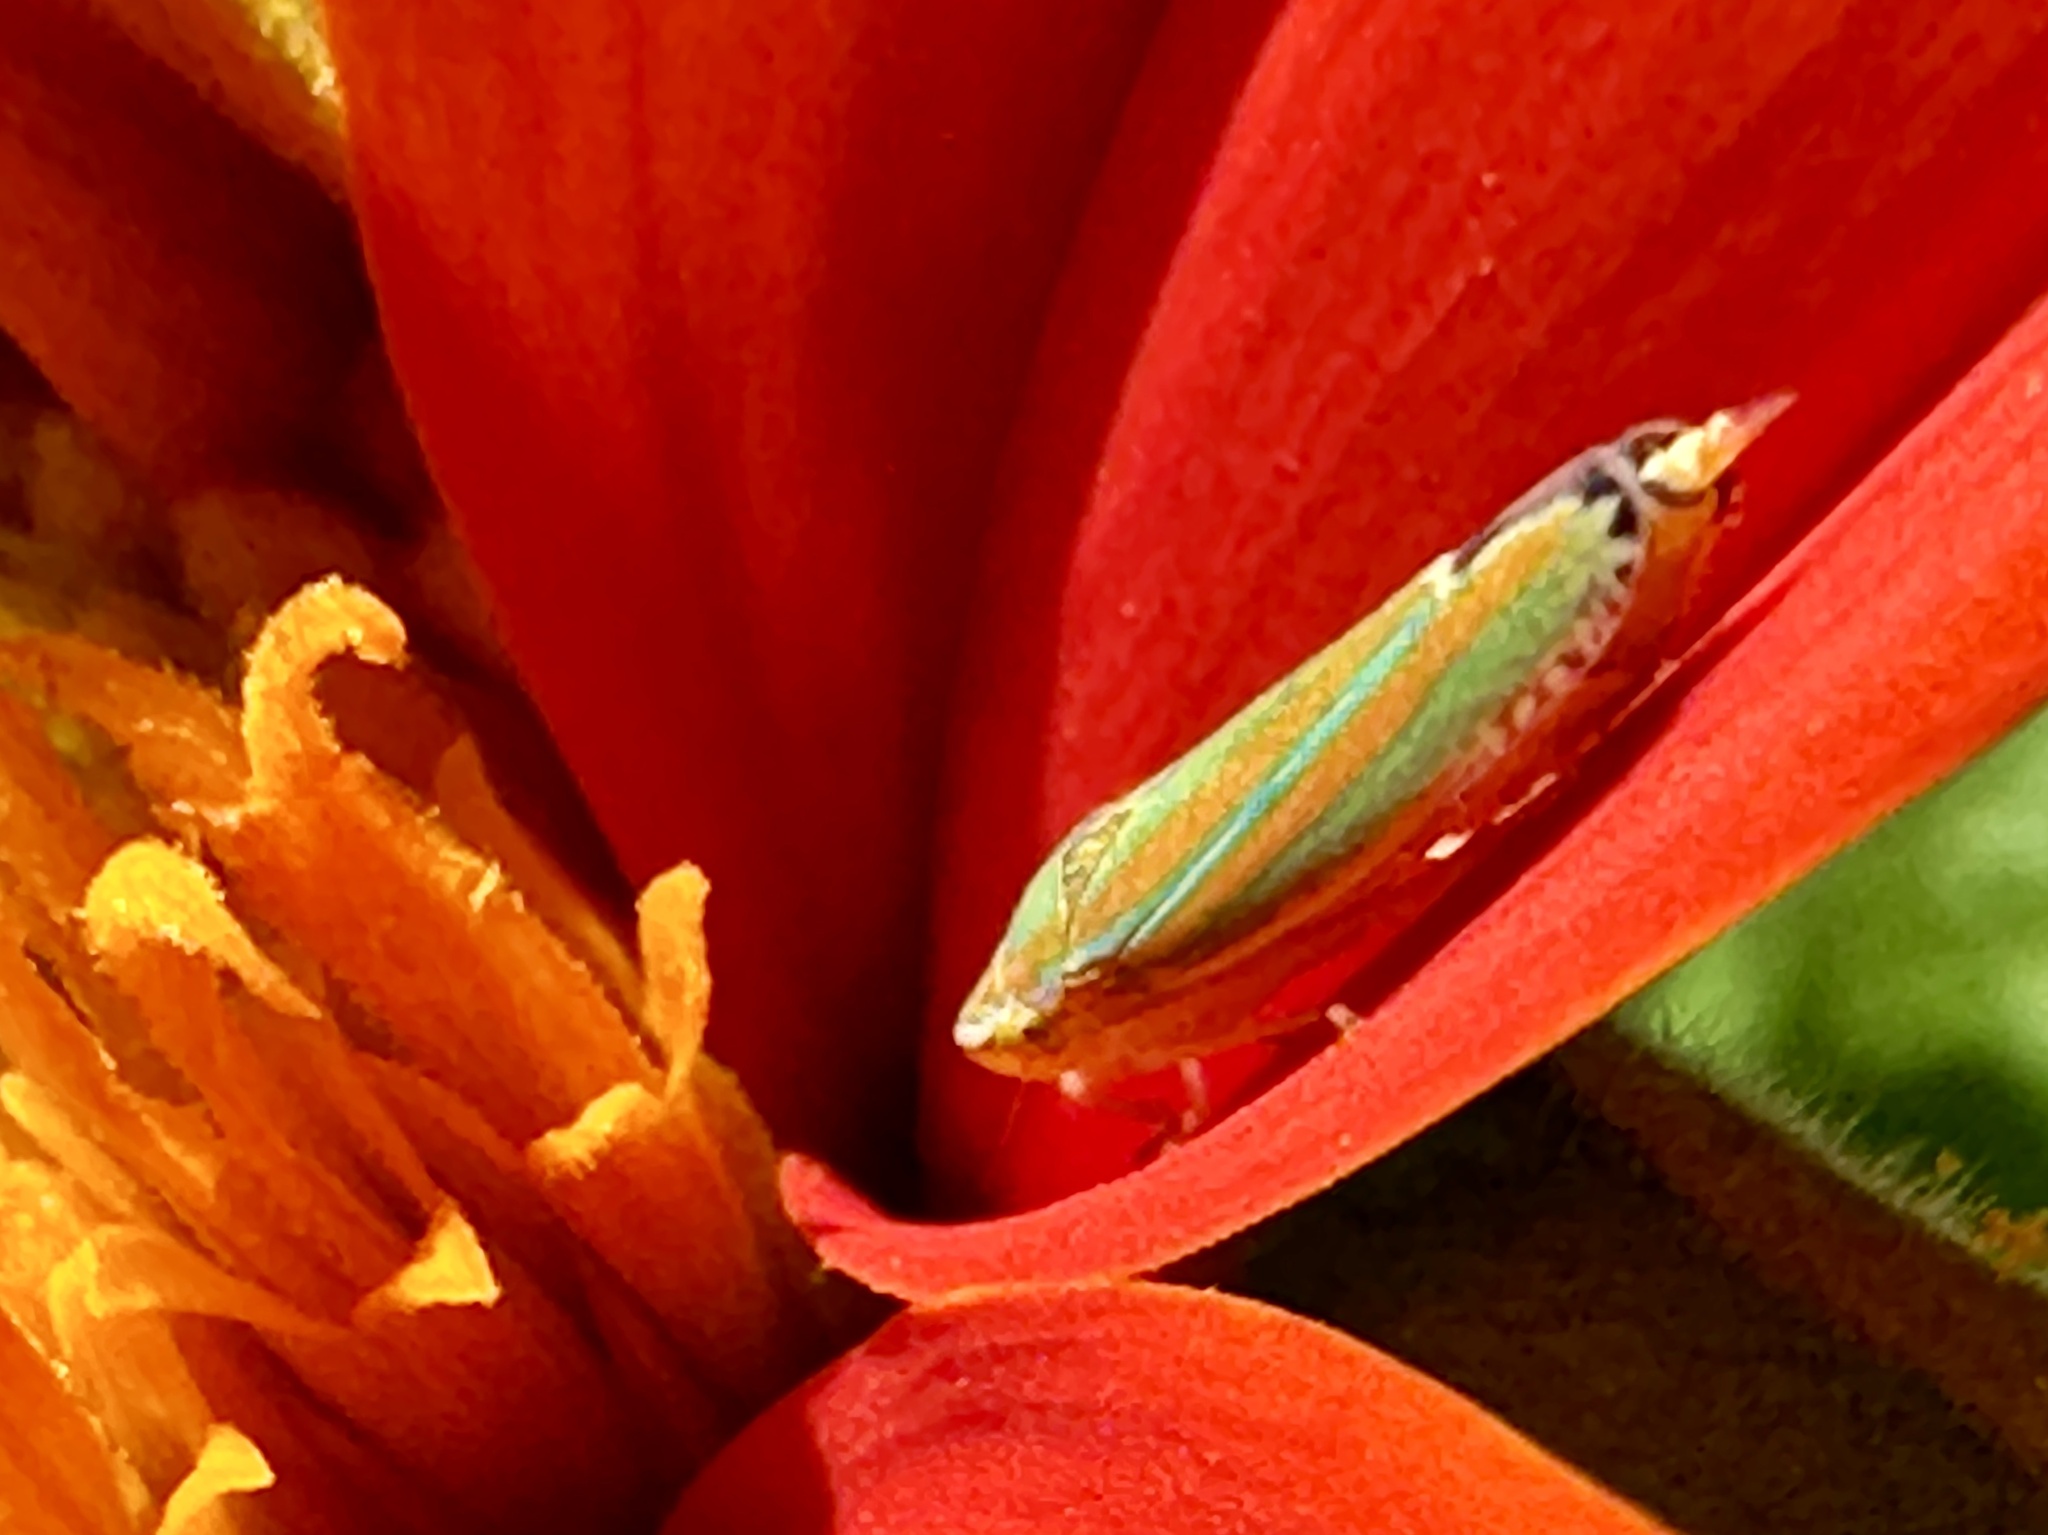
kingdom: Animalia
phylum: Arthropoda
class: Insecta
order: Hemiptera
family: Cicadellidae
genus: Graphocephala
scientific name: Graphocephala versuta
